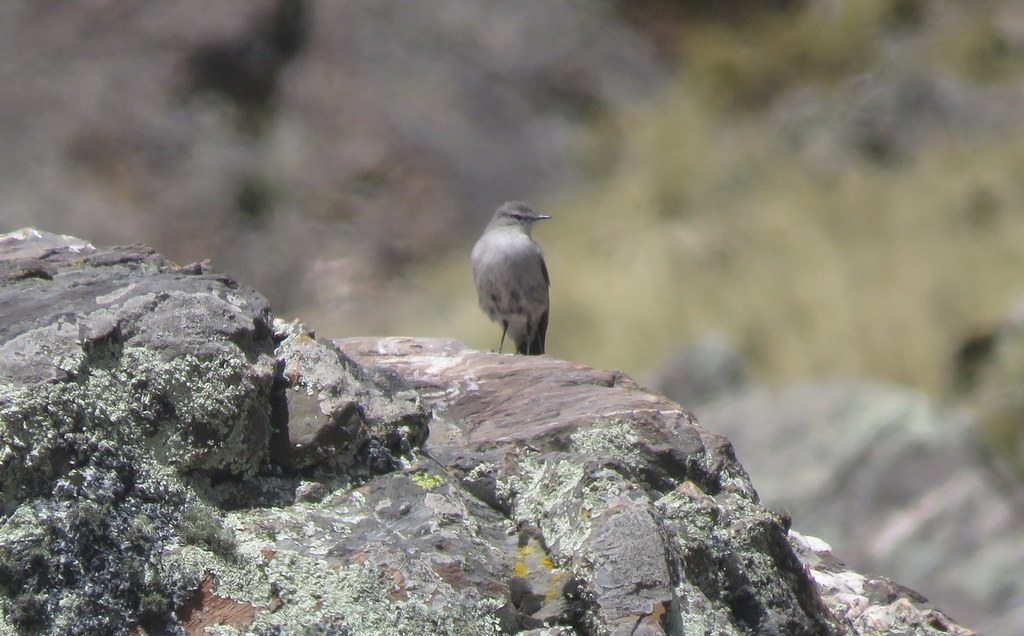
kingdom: Animalia
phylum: Chordata
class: Aves
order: Passeriformes
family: Tyrannidae
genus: Muscisaxicola
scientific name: Muscisaxicola cinereus
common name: Cinereous ground tyrant
